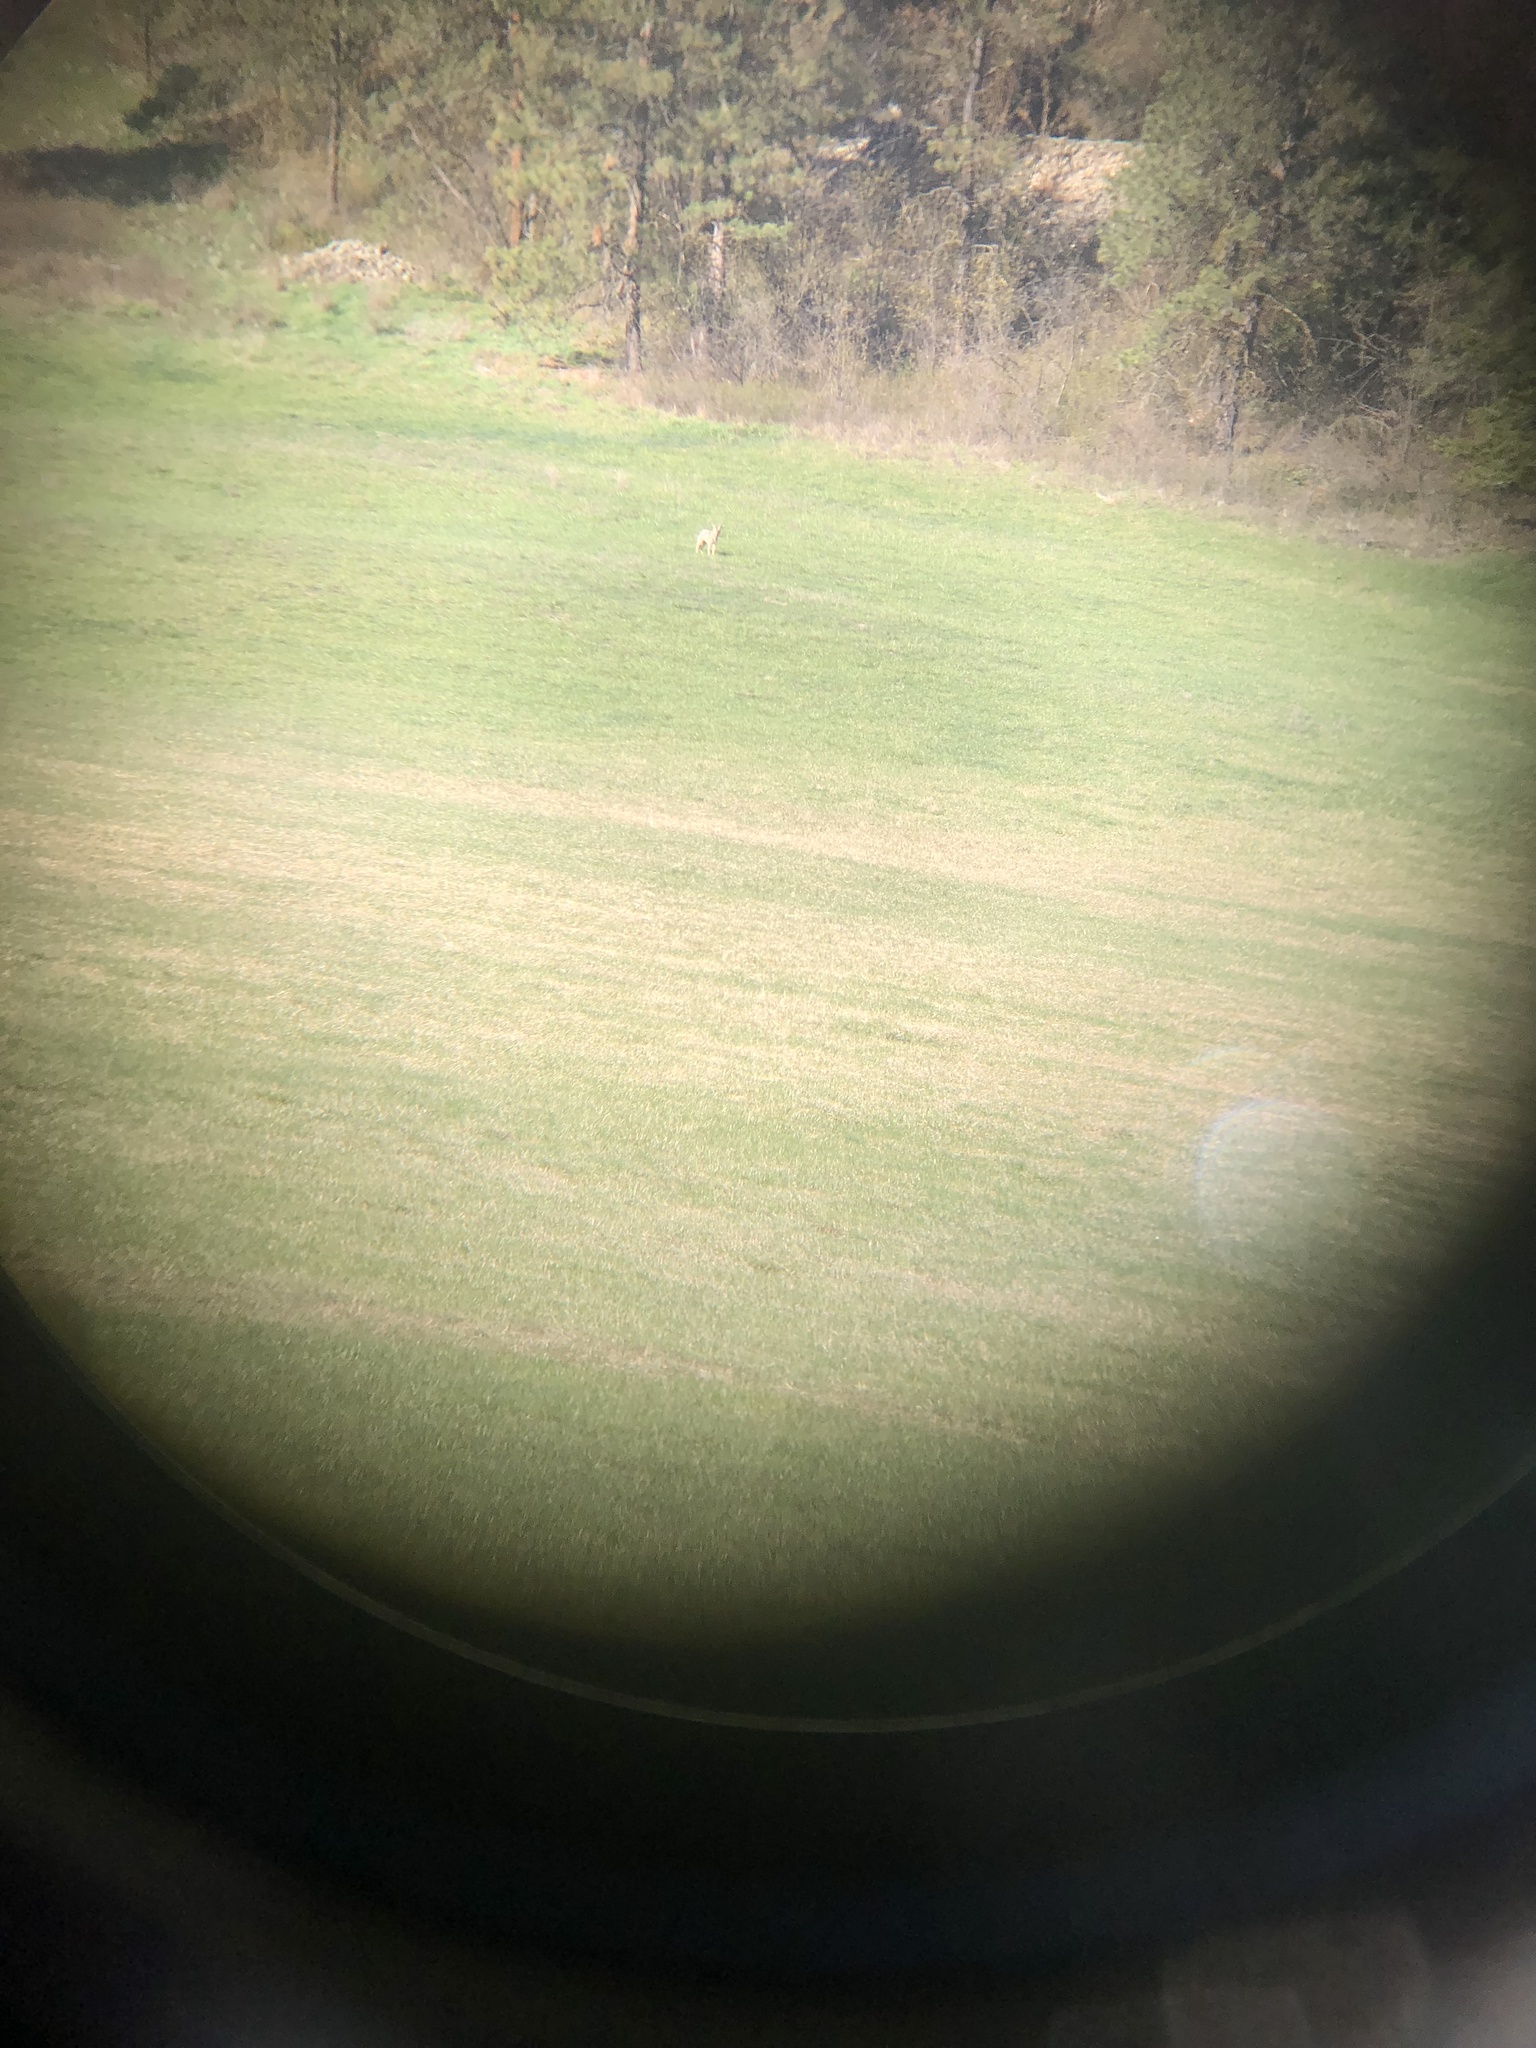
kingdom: Animalia
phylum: Chordata
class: Mammalia
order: Carnivora
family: Canidae
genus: Canis
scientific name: Canis latrans
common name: Coyote
